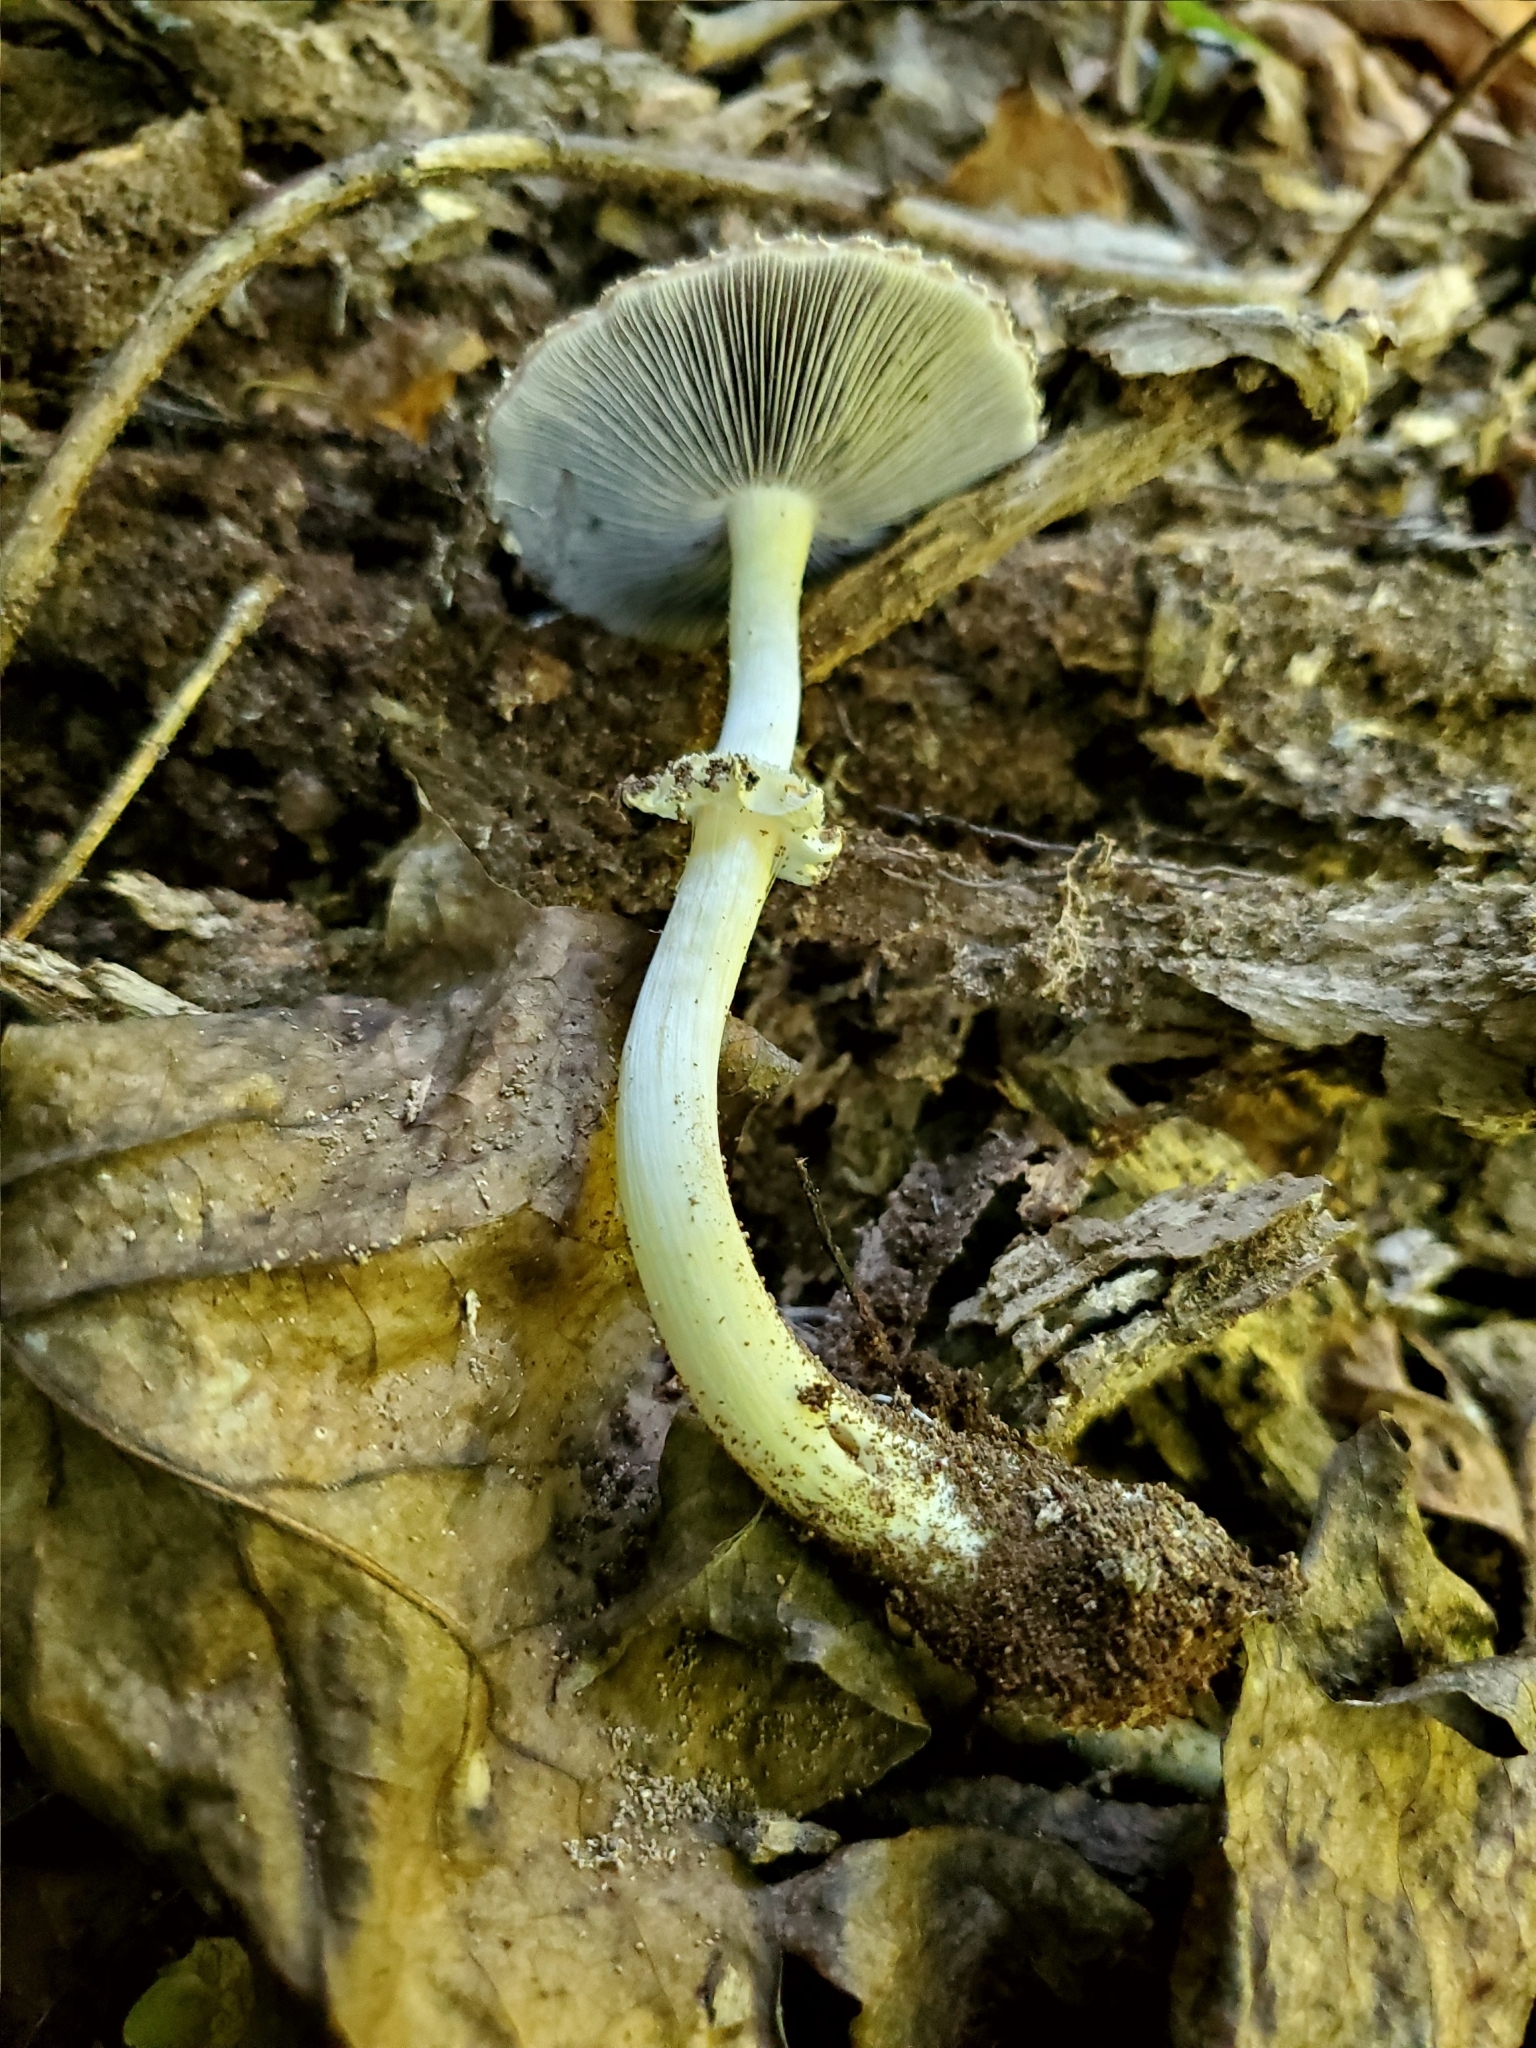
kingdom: Fungi
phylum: Basidiomycota
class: Agaricomycetes
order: Agaricales
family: Strophariaceae
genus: Stropharia
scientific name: Stropharia rugosoannulata
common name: Wine roundhead
